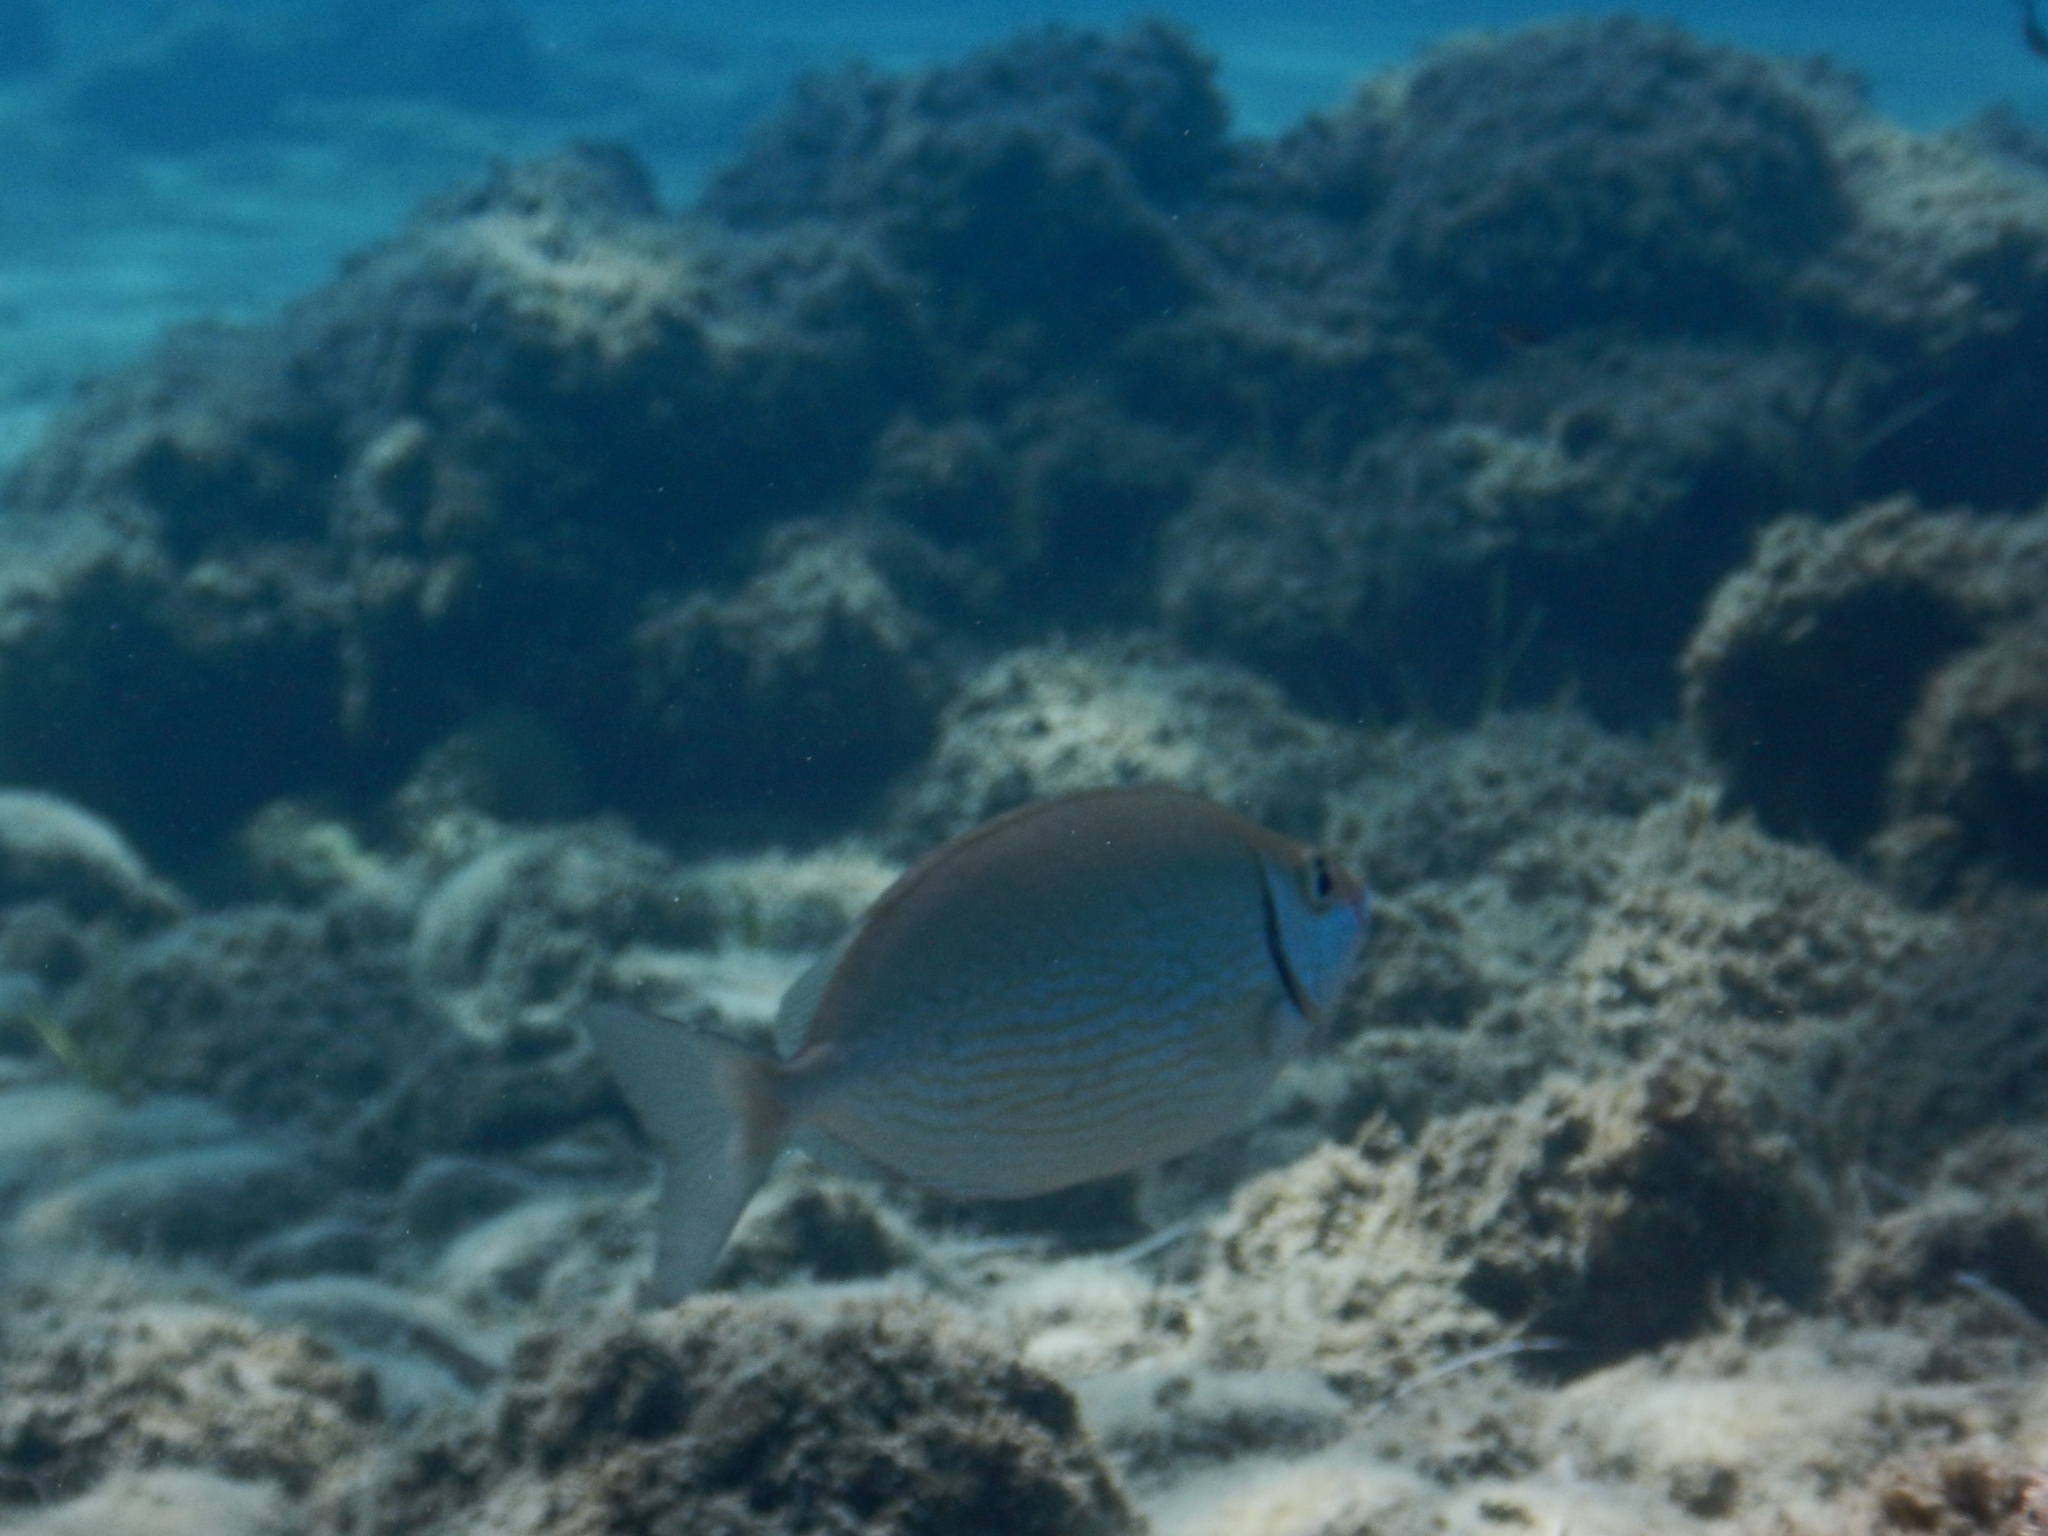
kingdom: Animalia
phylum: Chordata
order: Perciformes
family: Siganidae
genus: Siganus
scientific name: Siganus rivulatus
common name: Marbled spinefoot
